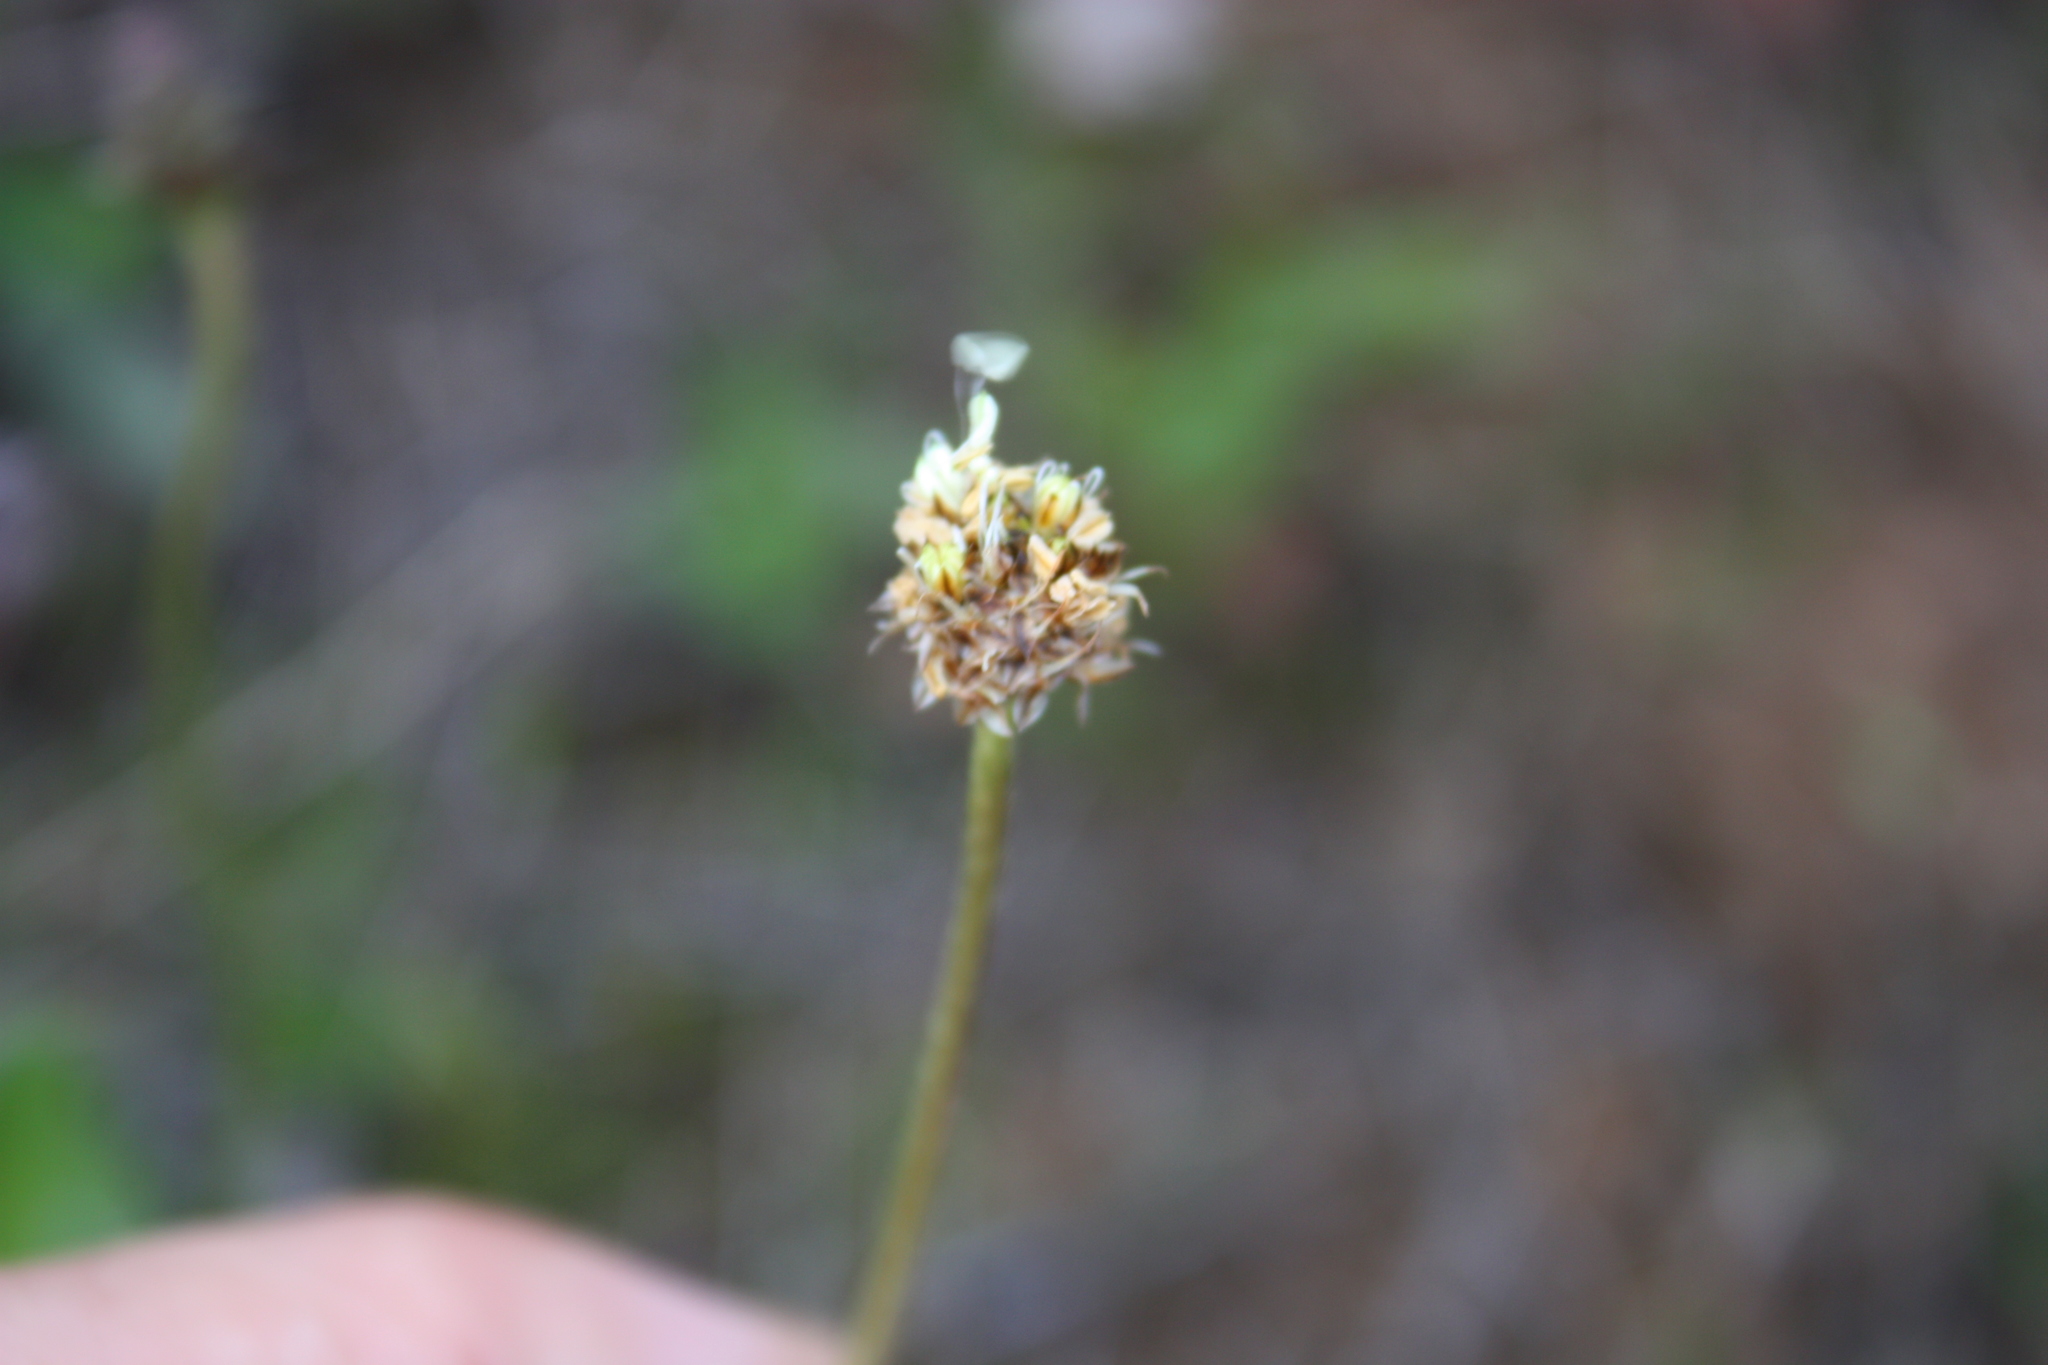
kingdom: Plantae
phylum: Tracheophyta
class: Magnoliopsida
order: Lamiales
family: Plantaginaceae
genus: Plantago
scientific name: Plantago lanceolata
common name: Ribwort plantain
